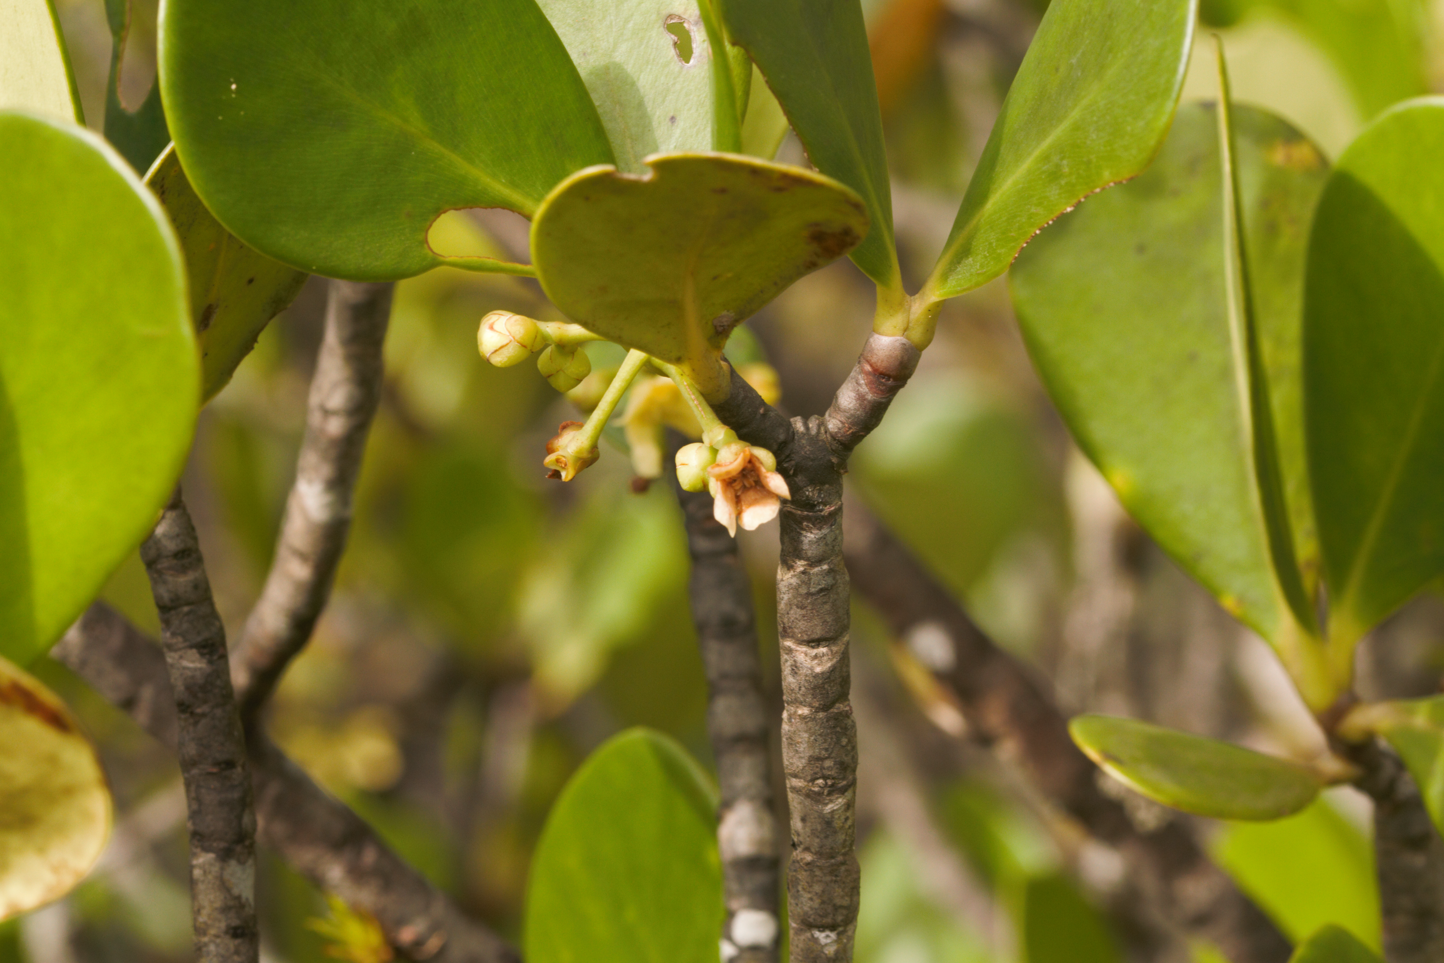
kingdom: Plantae
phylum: Tracheophyta
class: Magnoliopsida
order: Malpighiales
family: Clusiaceae
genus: Clusia
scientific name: Clusia blattophila
